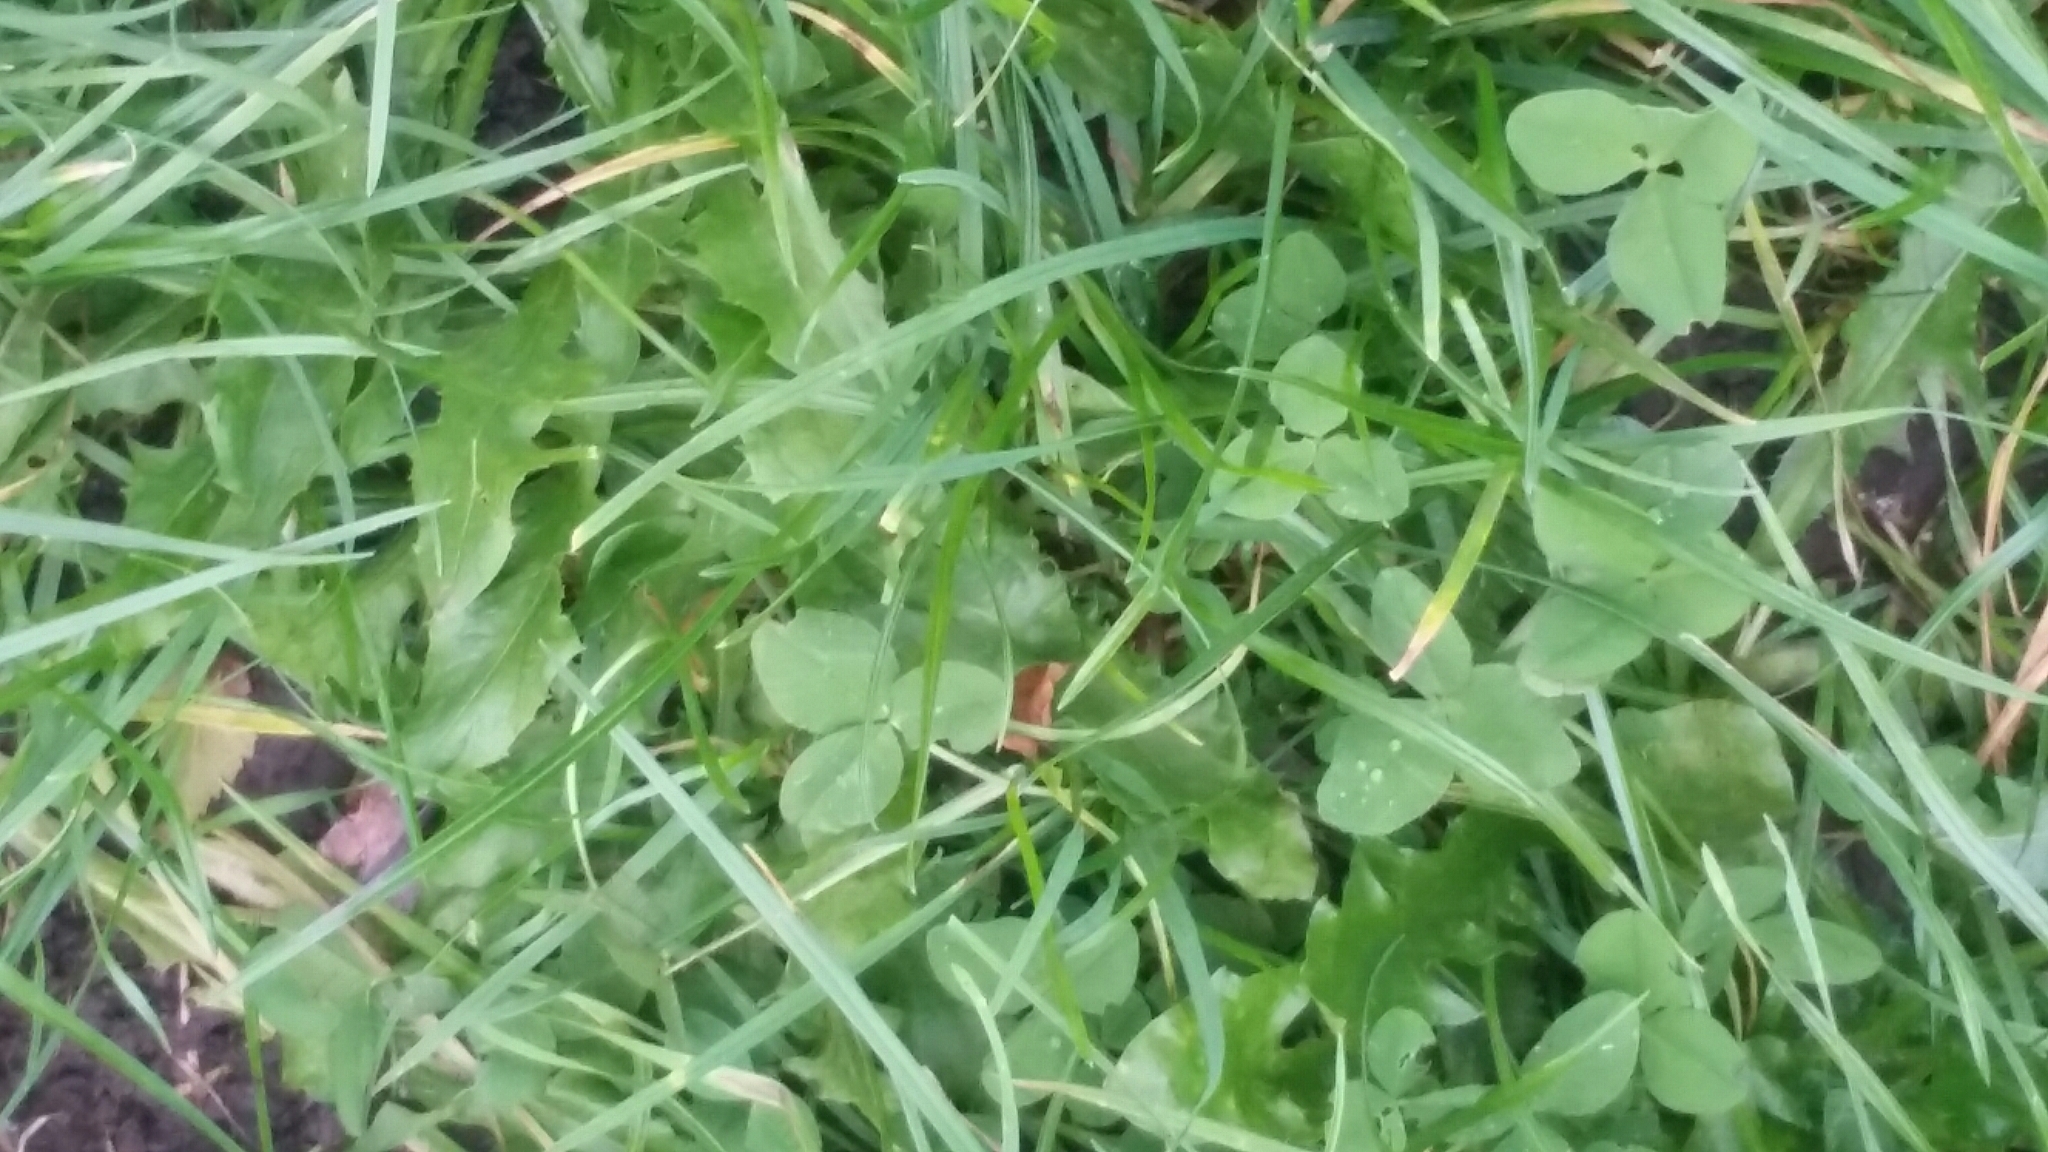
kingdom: Plantae
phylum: Tracheophyta
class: Magnoliopsida
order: Fabales
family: Fabaceae
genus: Trifolium
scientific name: Trifolium repens
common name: White clover
